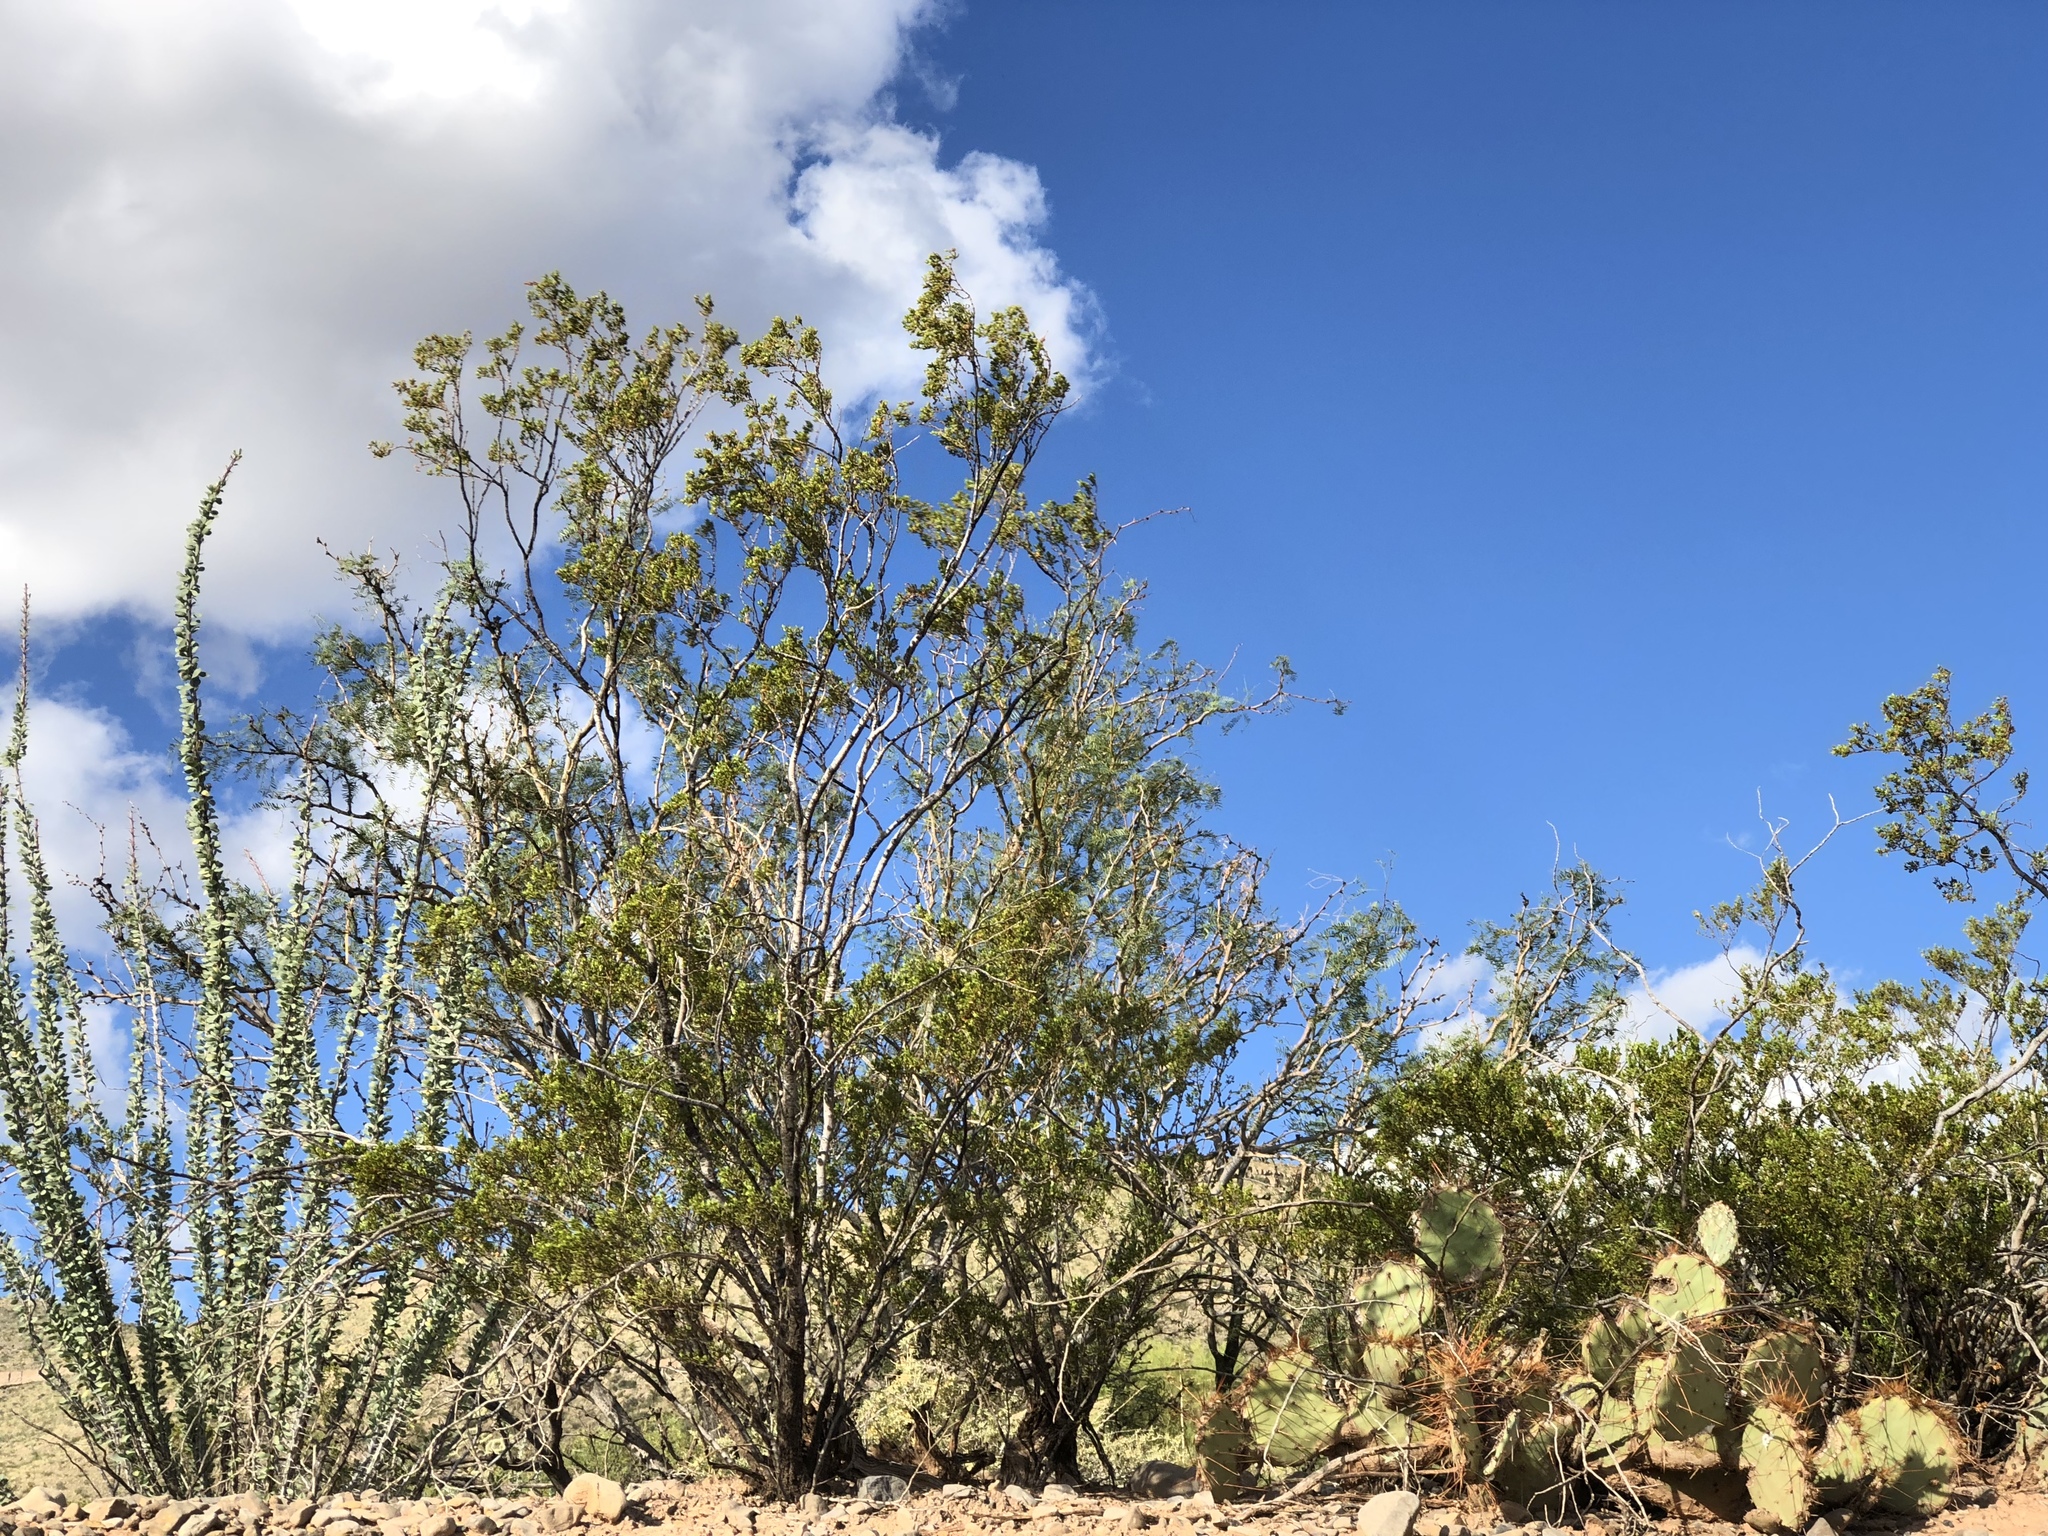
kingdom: Plantae
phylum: Tracheophyta
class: Magnoliopsida
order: Zygophyllales
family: Zygophyllaceae
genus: Larrea
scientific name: Larrea tridentata
